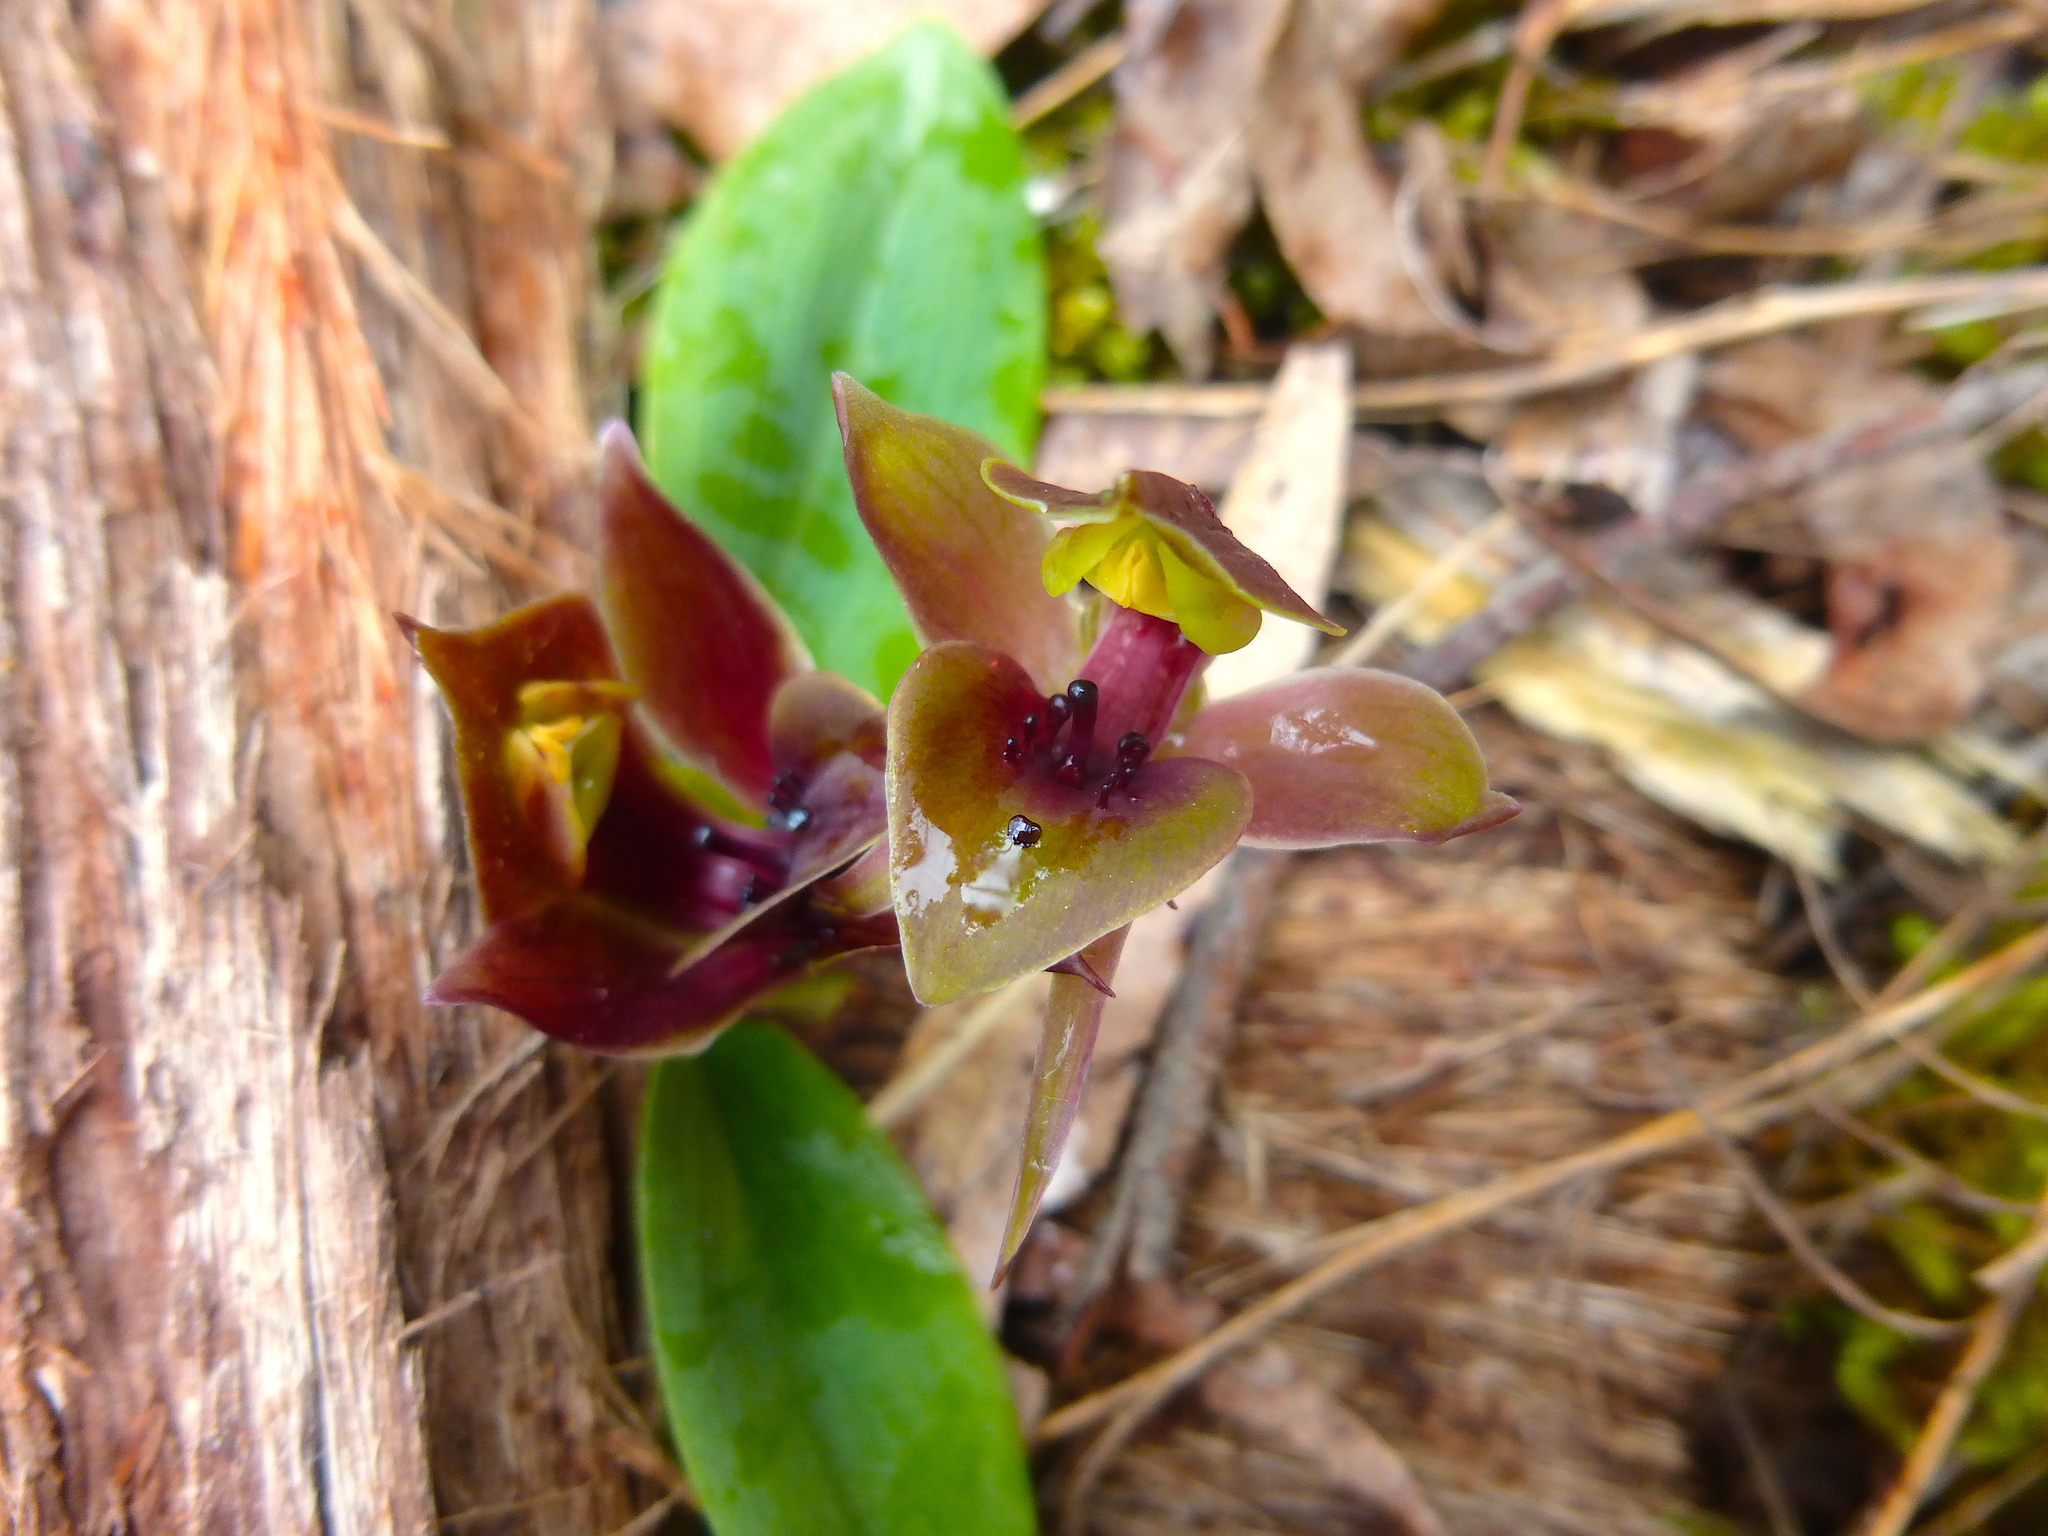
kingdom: Plantae
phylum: Tracheophyta
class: Liliopsida
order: Asparagales
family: Orchidaceae
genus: Chiloglottis
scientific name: Chiloglottis valida
